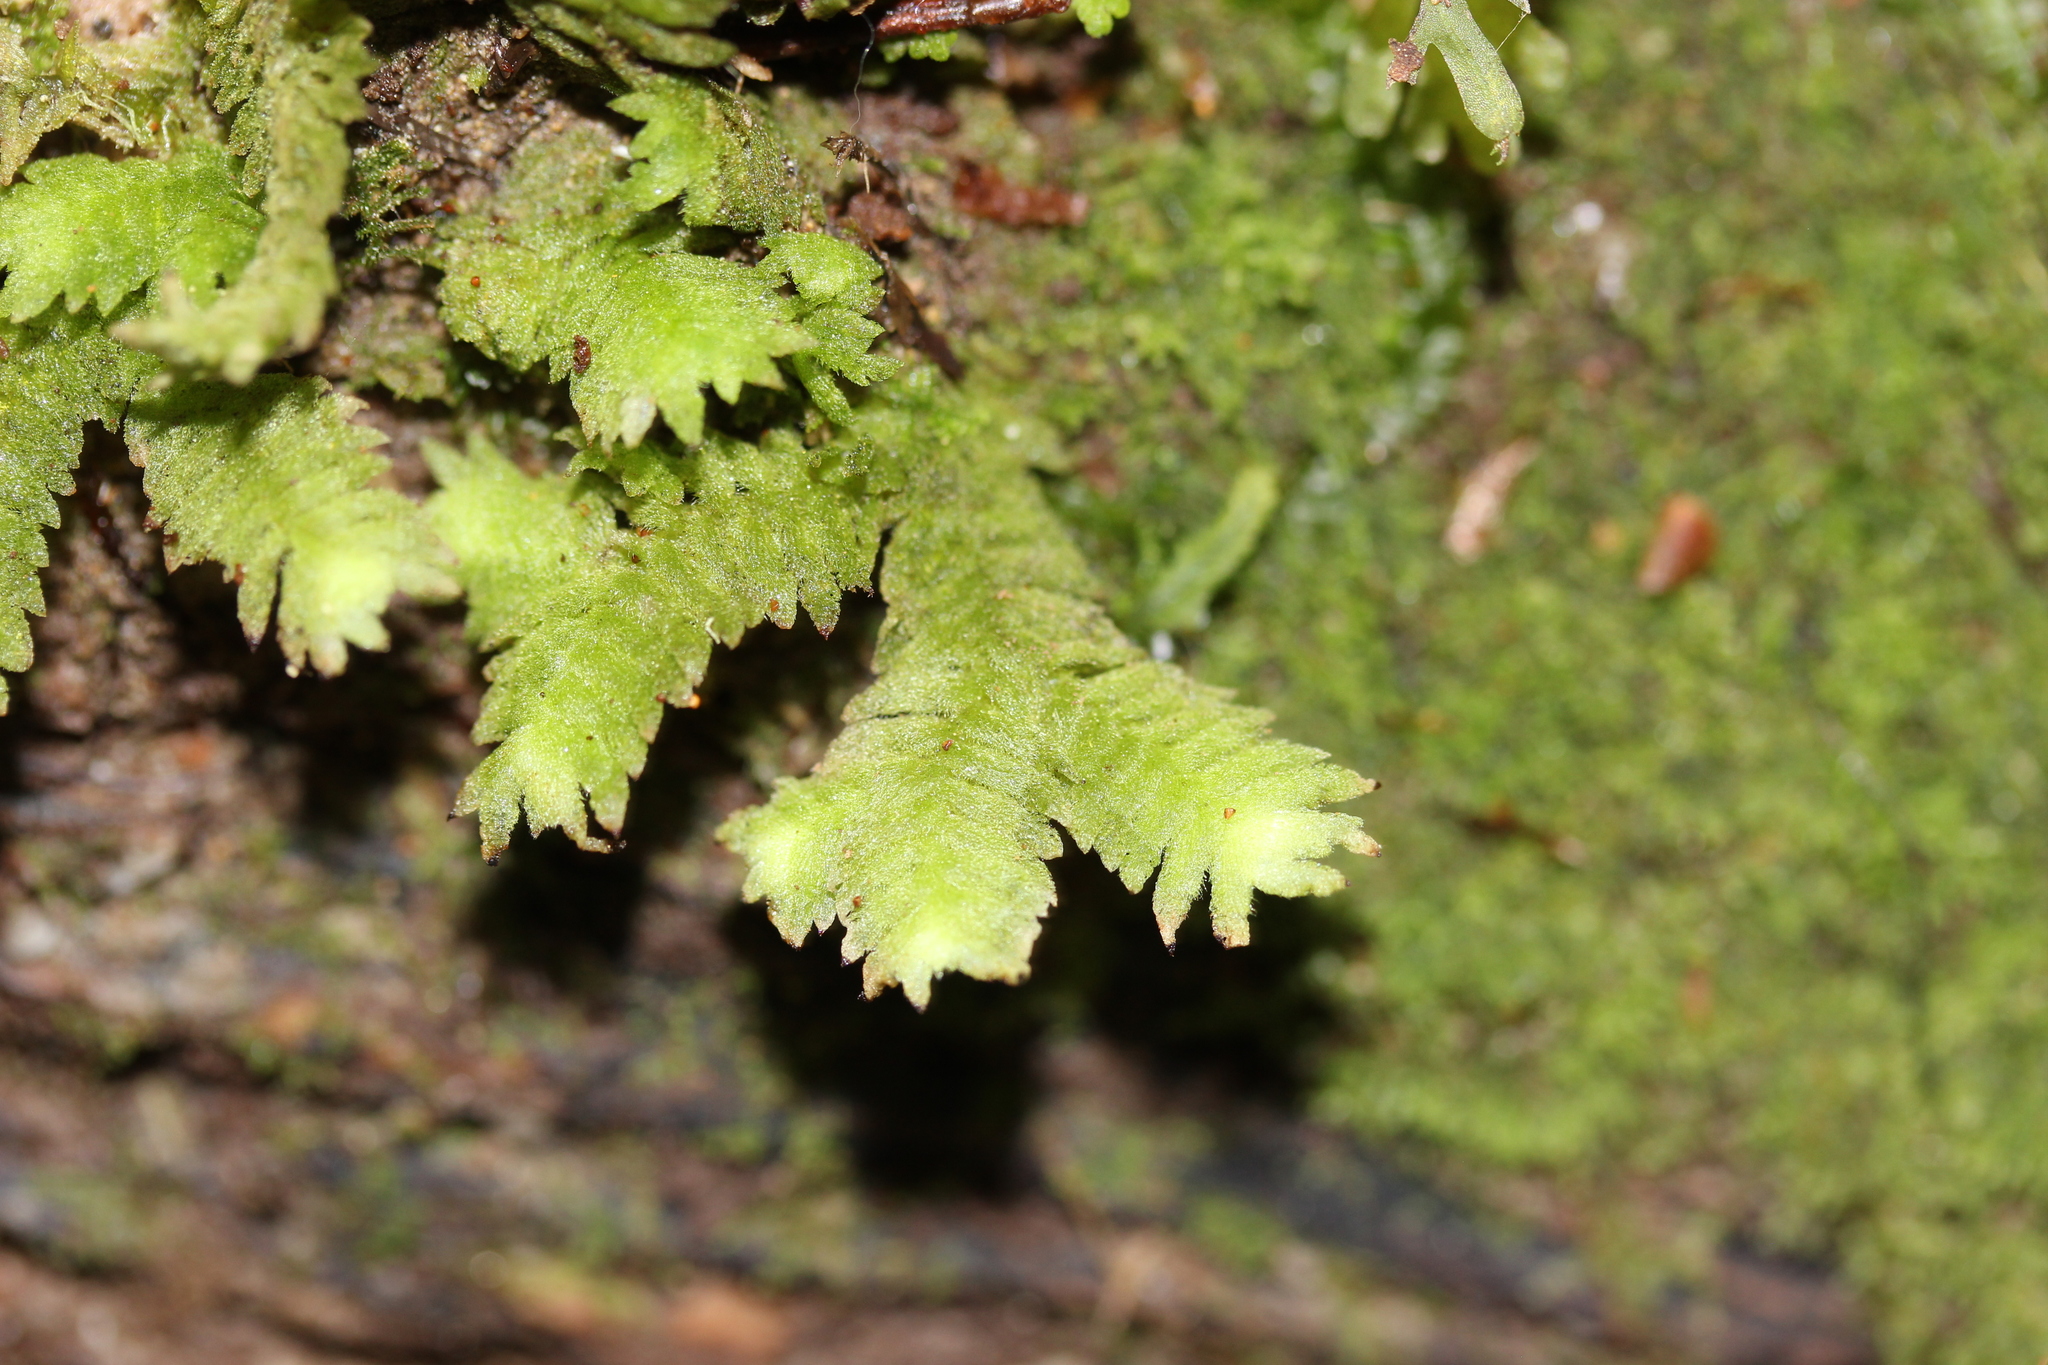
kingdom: Plantae
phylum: Marchantiophyta
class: Jungermanniopsida
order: Jungermanniales
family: Schistochilaceae
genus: Schistochila
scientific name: Schistochila glaucescens
